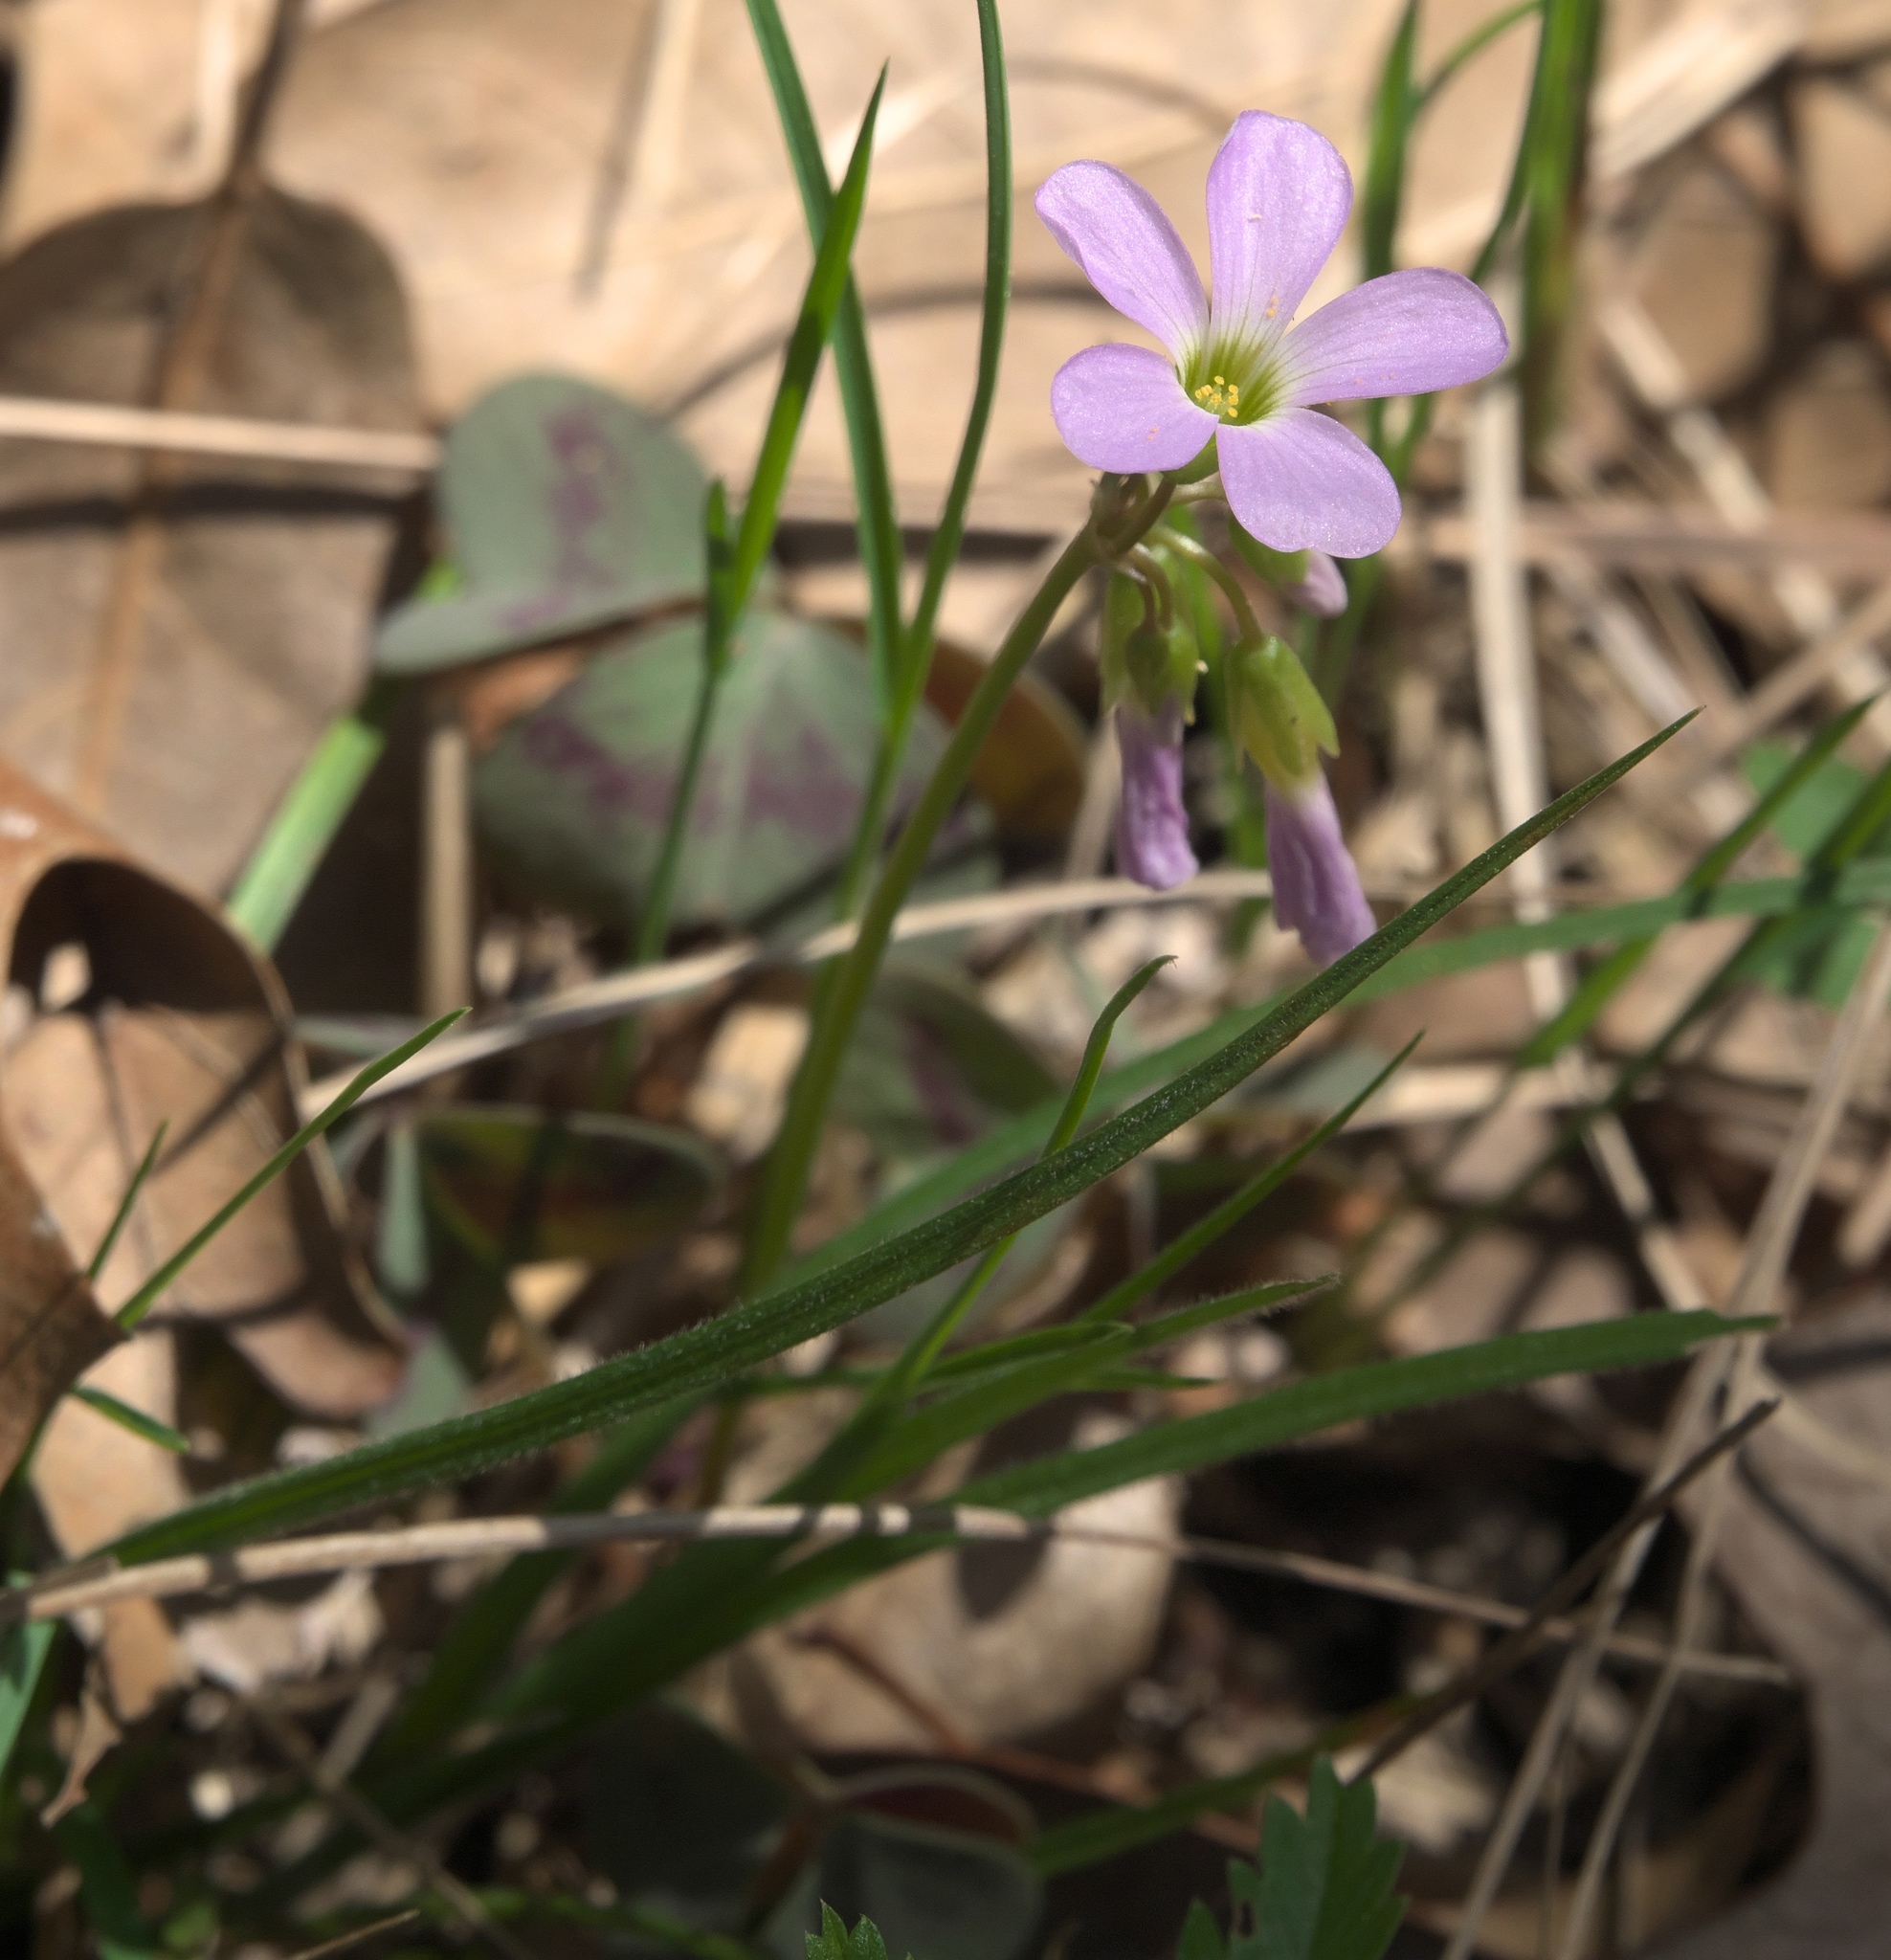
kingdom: Plantae
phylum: Tracheophyta
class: Magnoliopsida
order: Oxalidales
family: Oxalidaceae
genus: Oxalis
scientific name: Oxalis violacea
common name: Violet wood-sorrel
